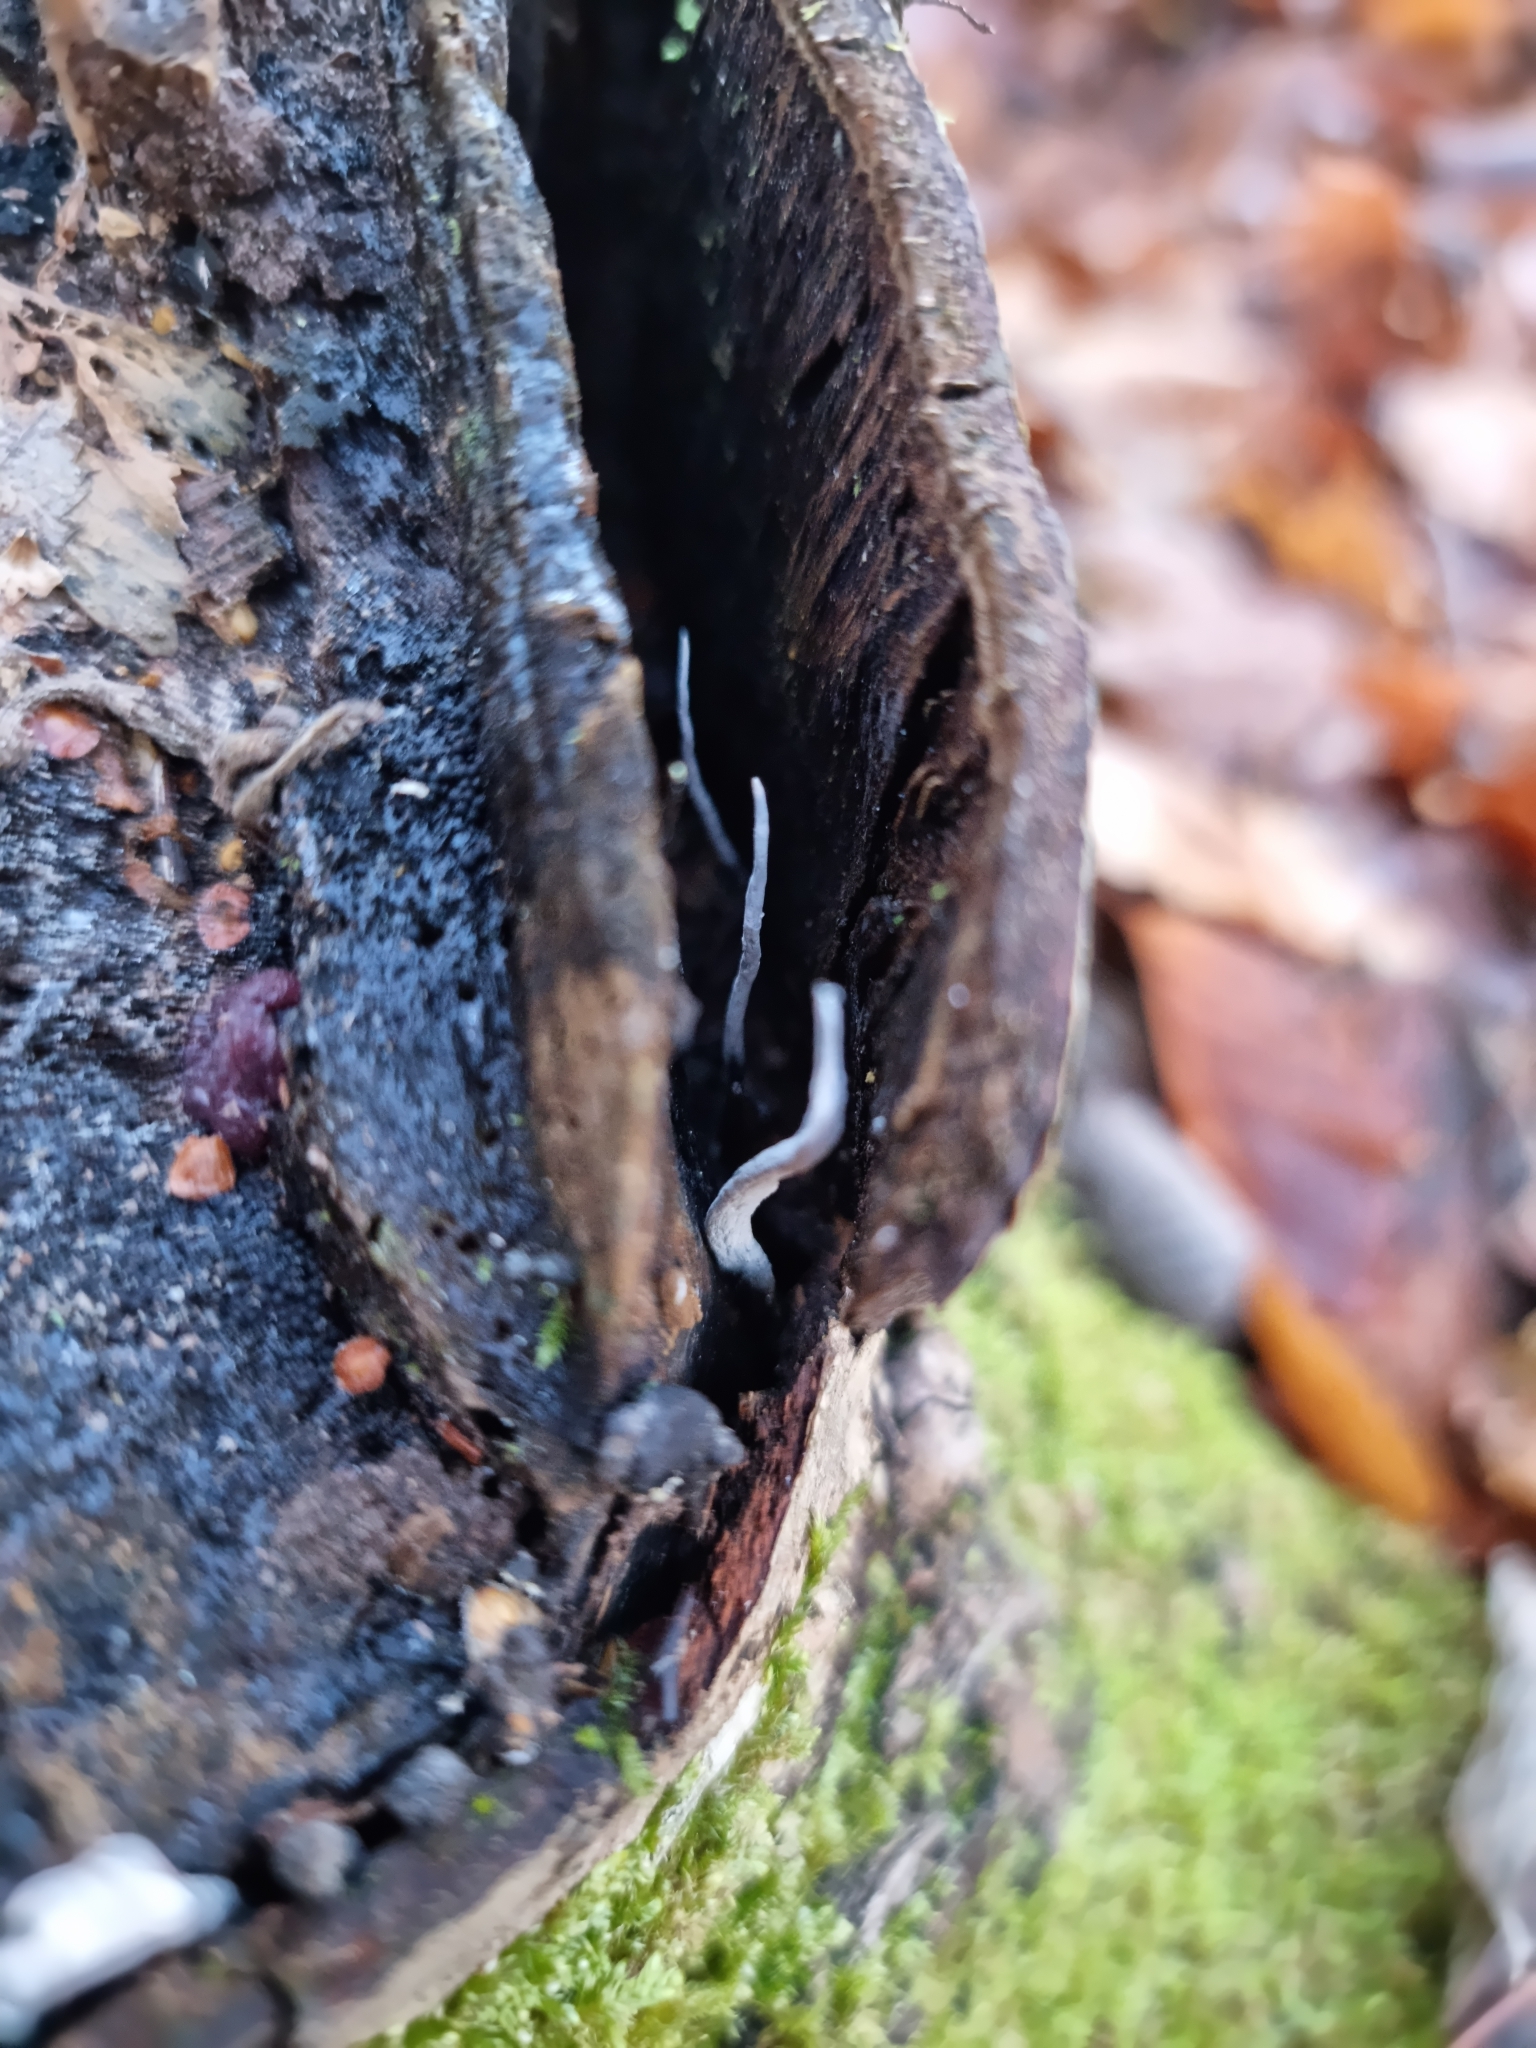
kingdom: Fungi
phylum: Ascomycota
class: Sordariomycetes
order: Xylariales
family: Xylariaceae
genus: Xylaria
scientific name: Xylaria hypoxylon
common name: Candle-snuff fungus
